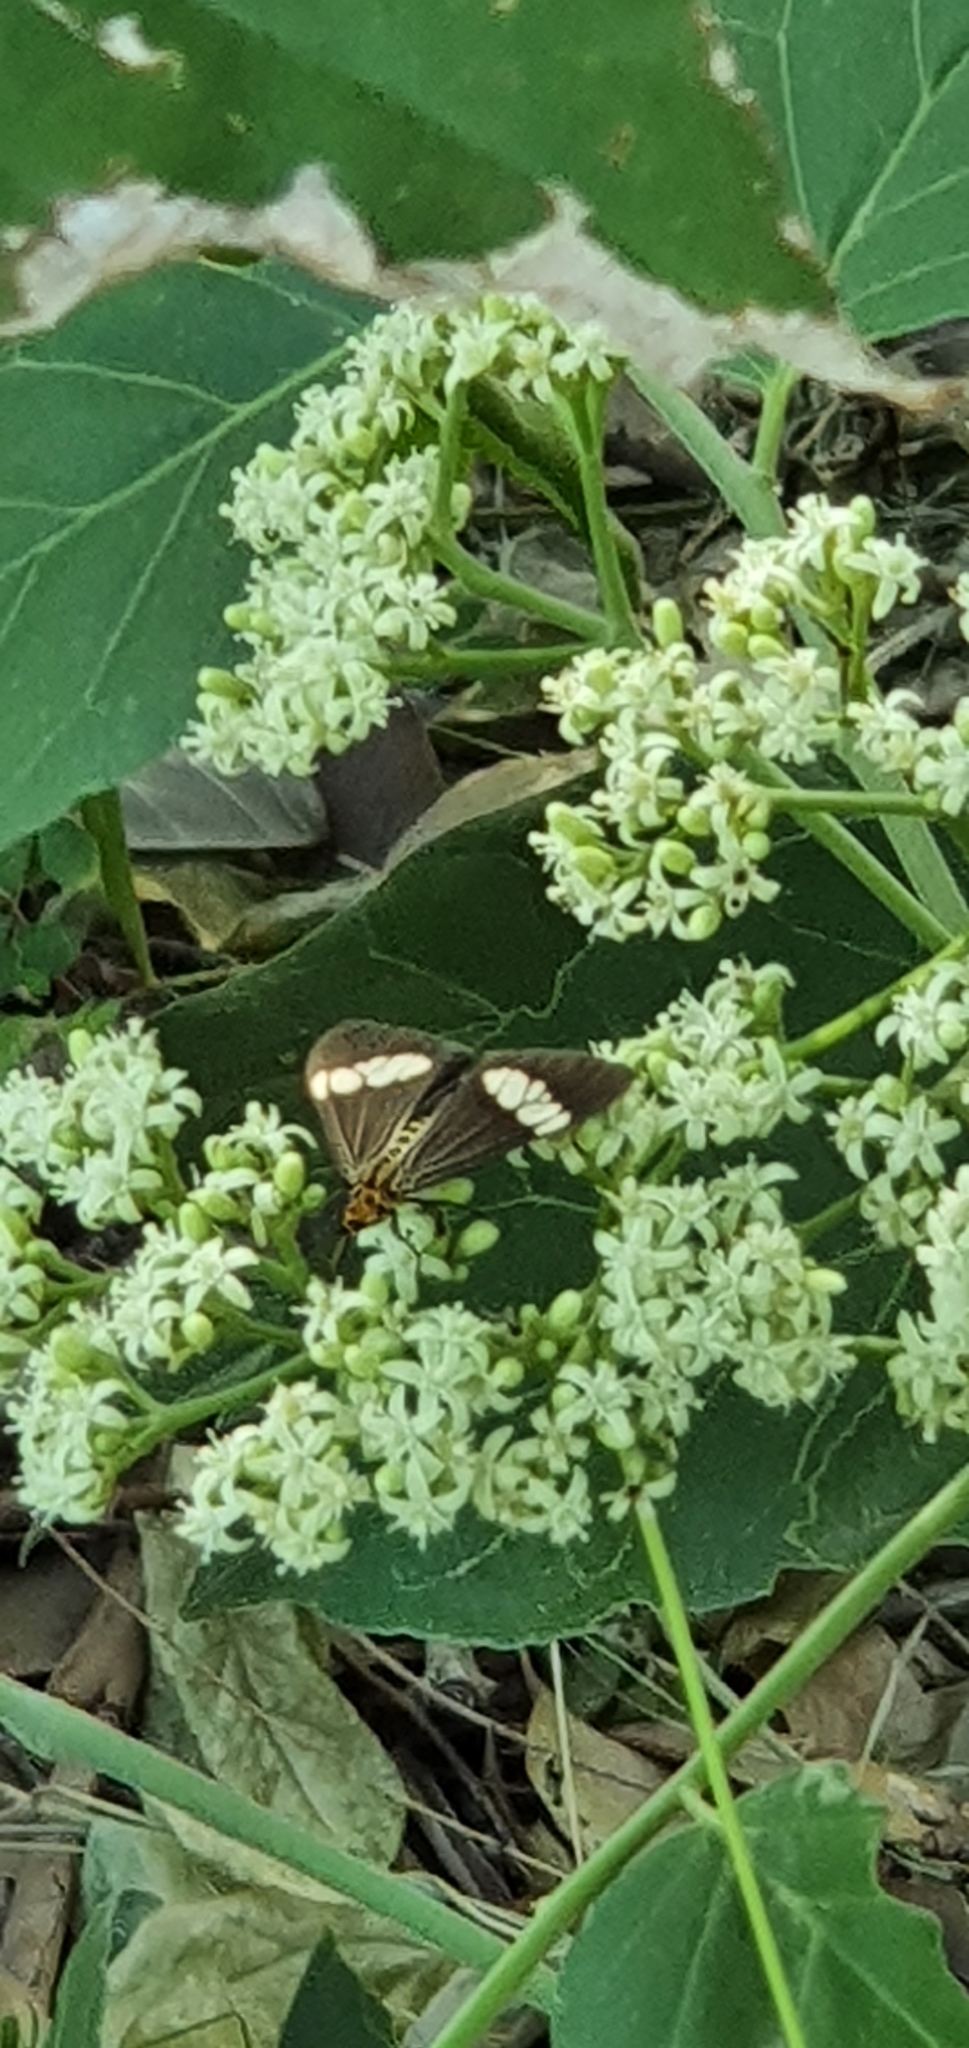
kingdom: Animalia
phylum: Arthropoda
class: Insecta
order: Lepidoptera
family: Erebidae
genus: Nyctemera
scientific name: Nyctemera baulus
